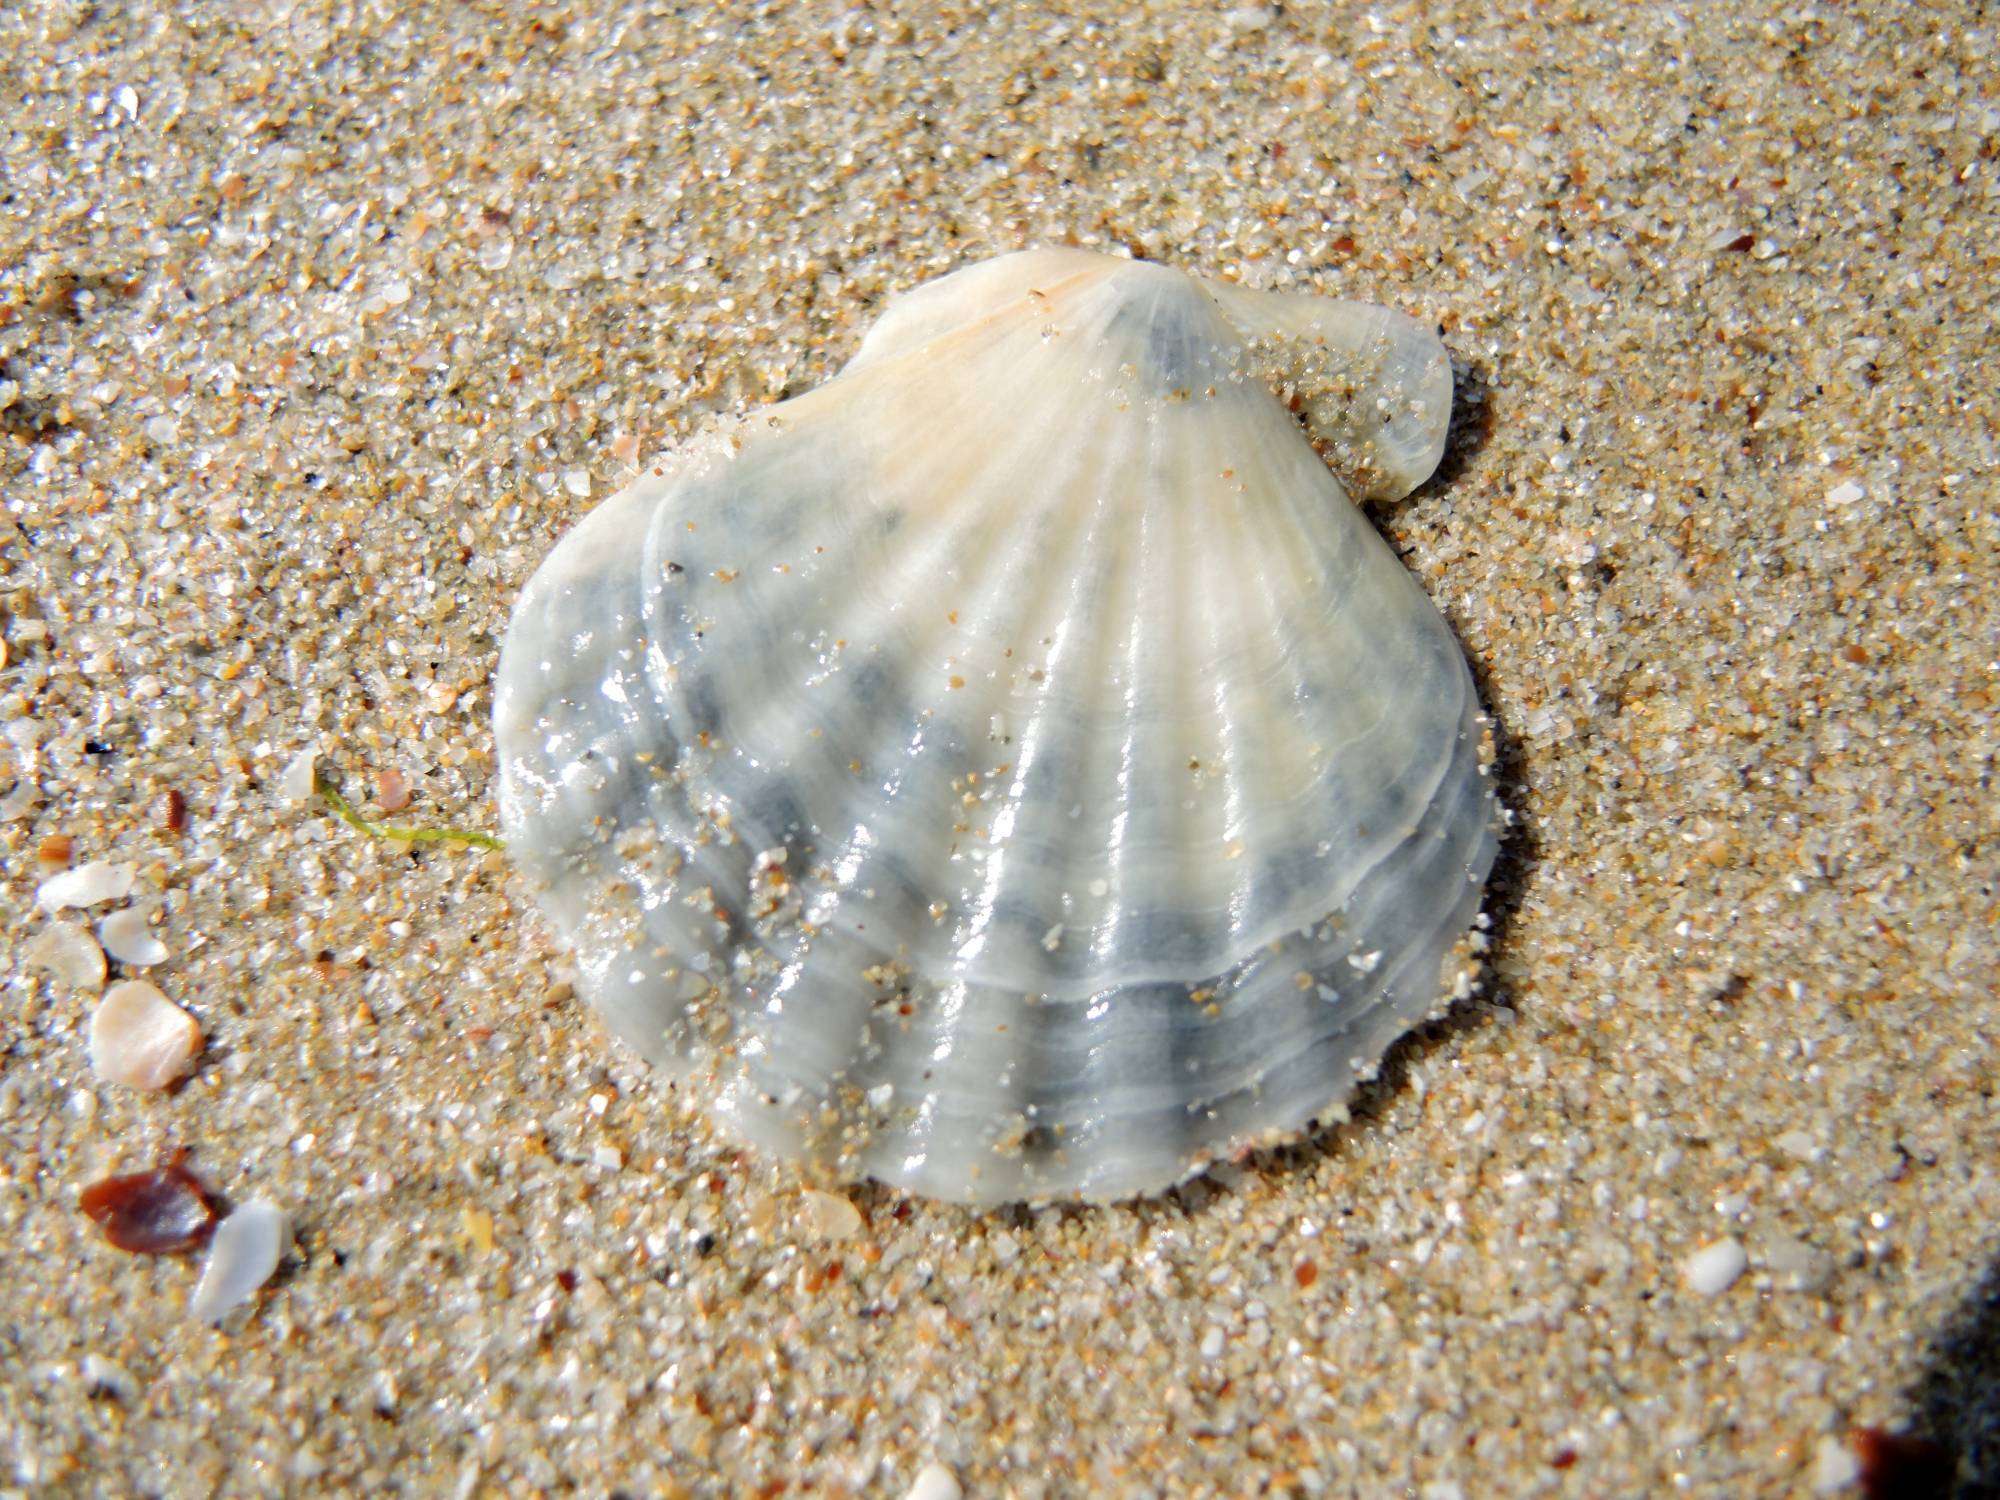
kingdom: Animalia
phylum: Mollusca
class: Bivalvia
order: Pectinida
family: Pectinidae
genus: Flexopecten
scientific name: Flexopecten glaber
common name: Smooth scallop
